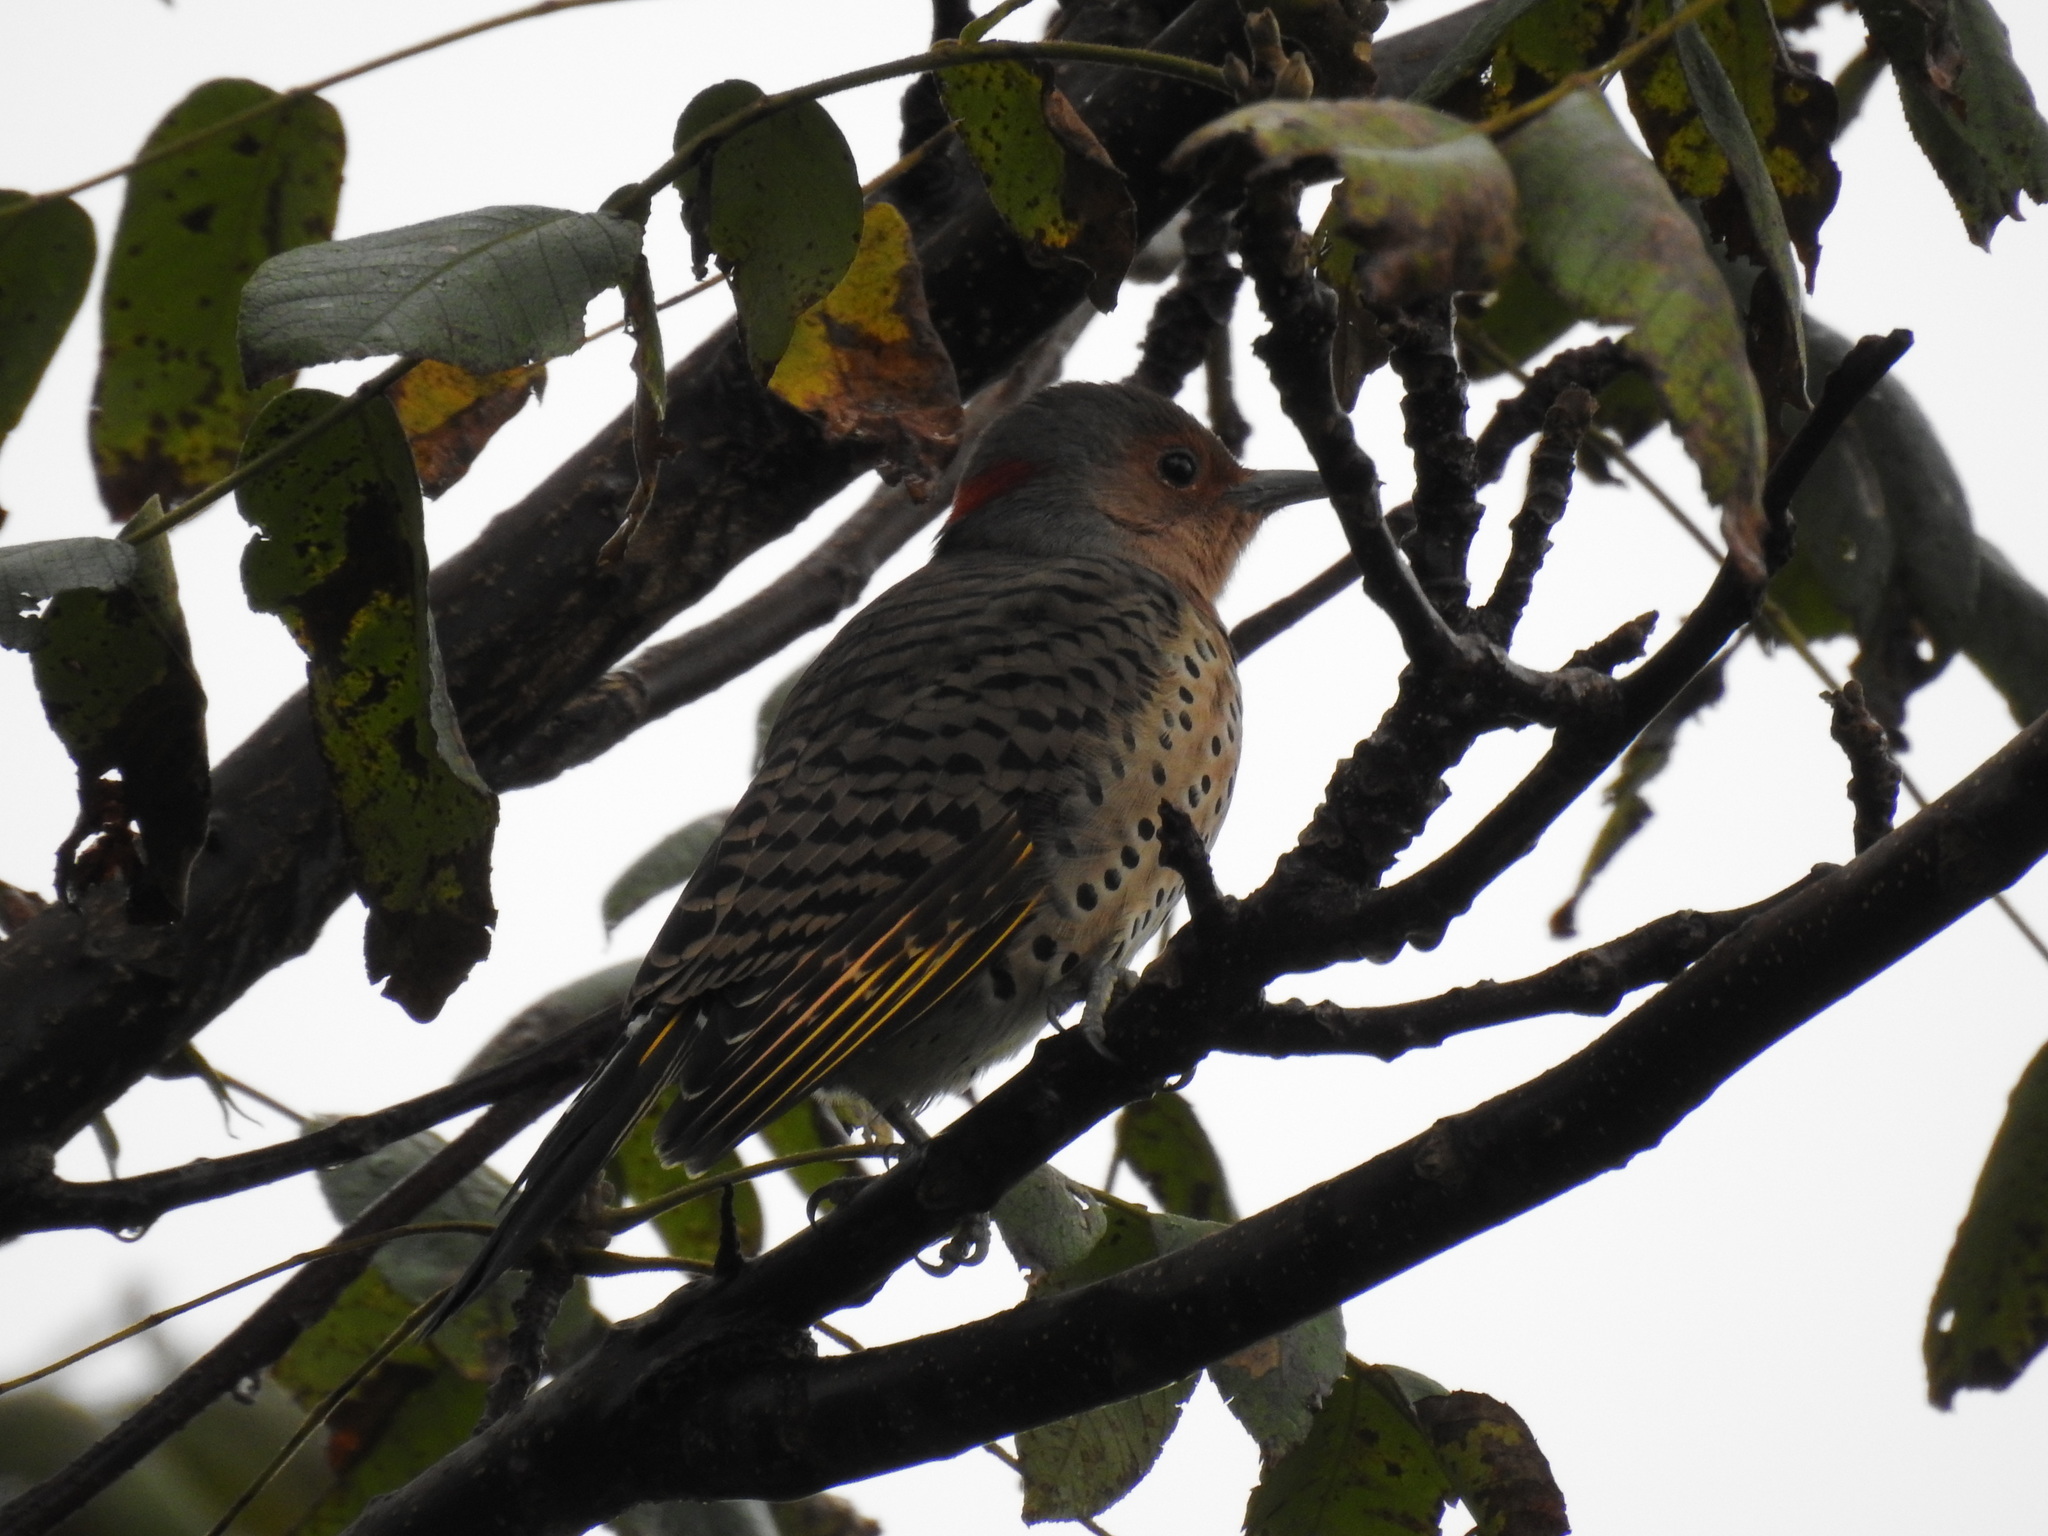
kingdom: Animalia
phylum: Chordata
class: Aves
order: Piciformes
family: Picidae
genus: Colaptes
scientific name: Colaptes auratus
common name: Northern flicker
